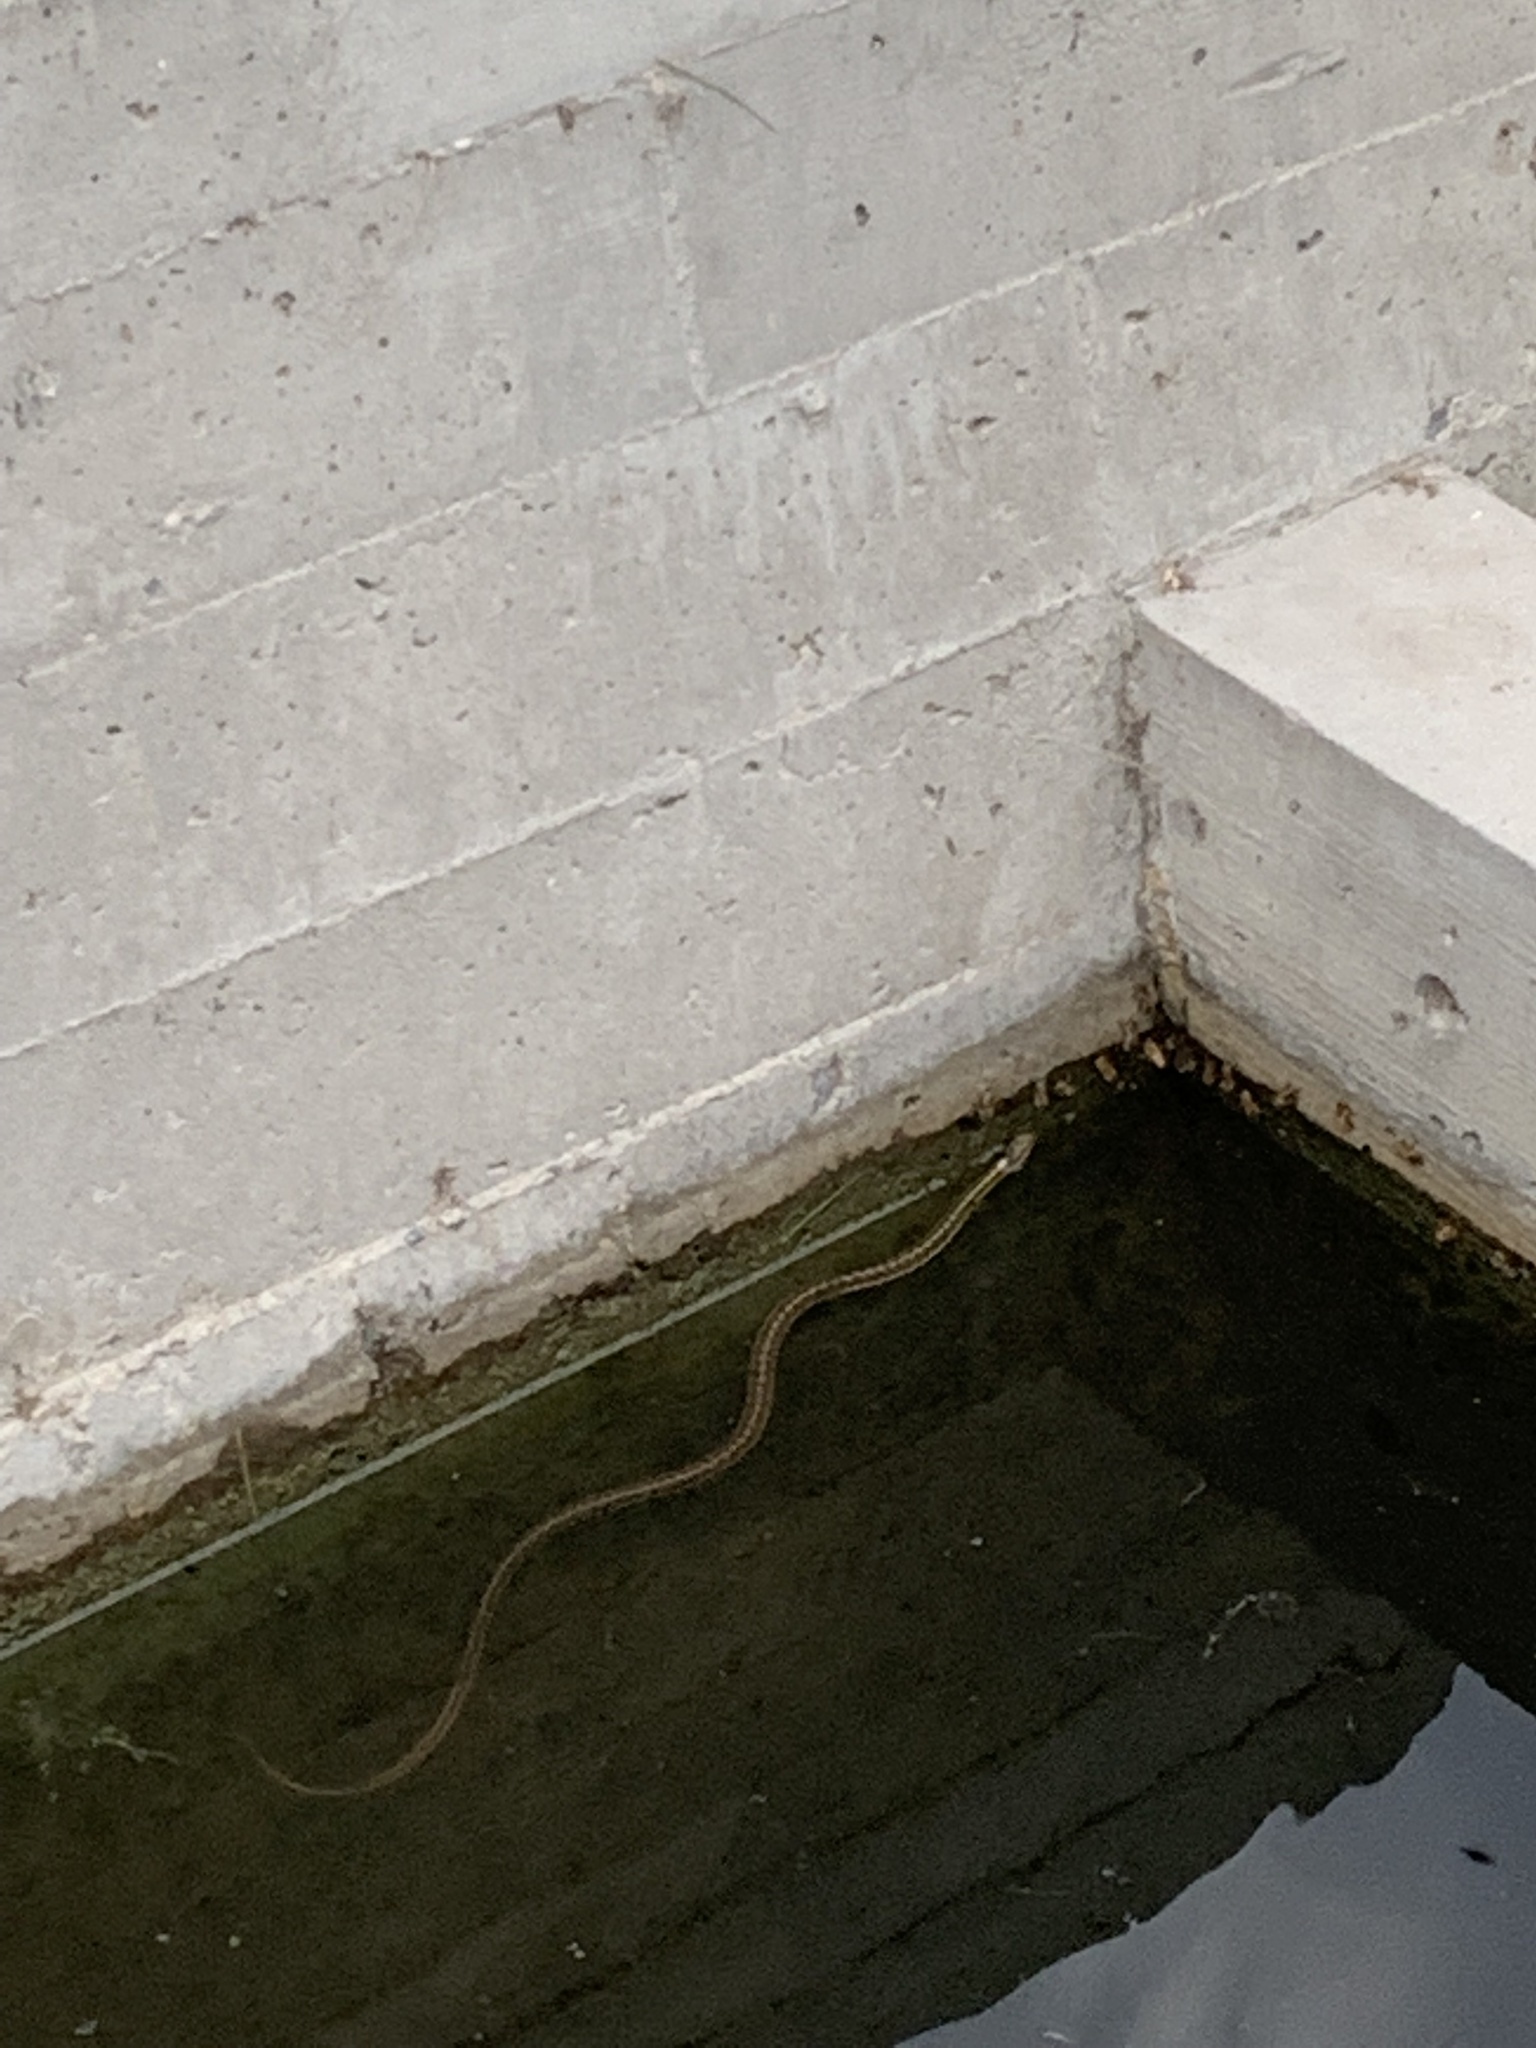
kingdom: Animalia
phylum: Chordata
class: Squamata
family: Colubridae
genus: Thamnophis
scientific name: Thamnophis elegans
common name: Western terrestrial garter snake
